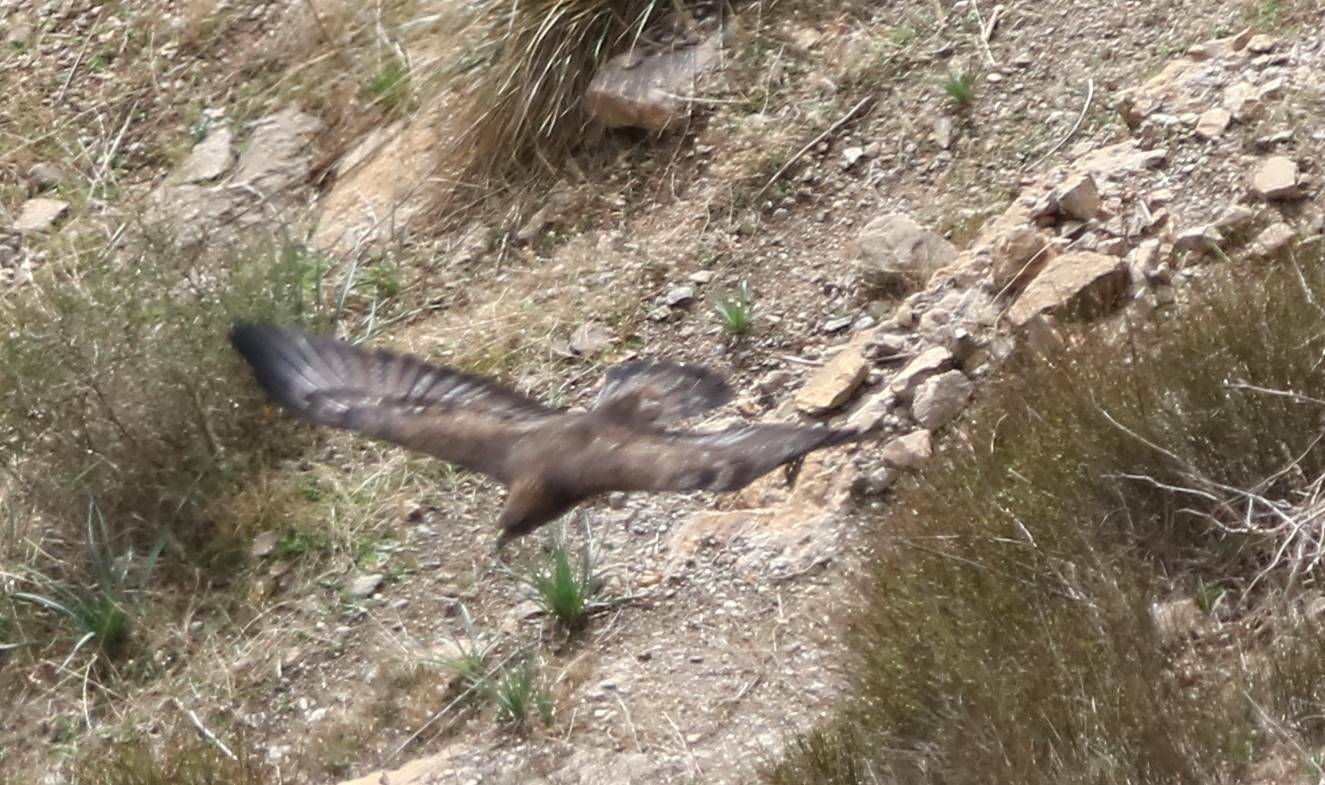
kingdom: Animalia
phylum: Chordata
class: Aves
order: Accipitriformes
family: Accipitridae
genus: Aquila
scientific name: Aquila chrysaetos
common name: Golden eagle
